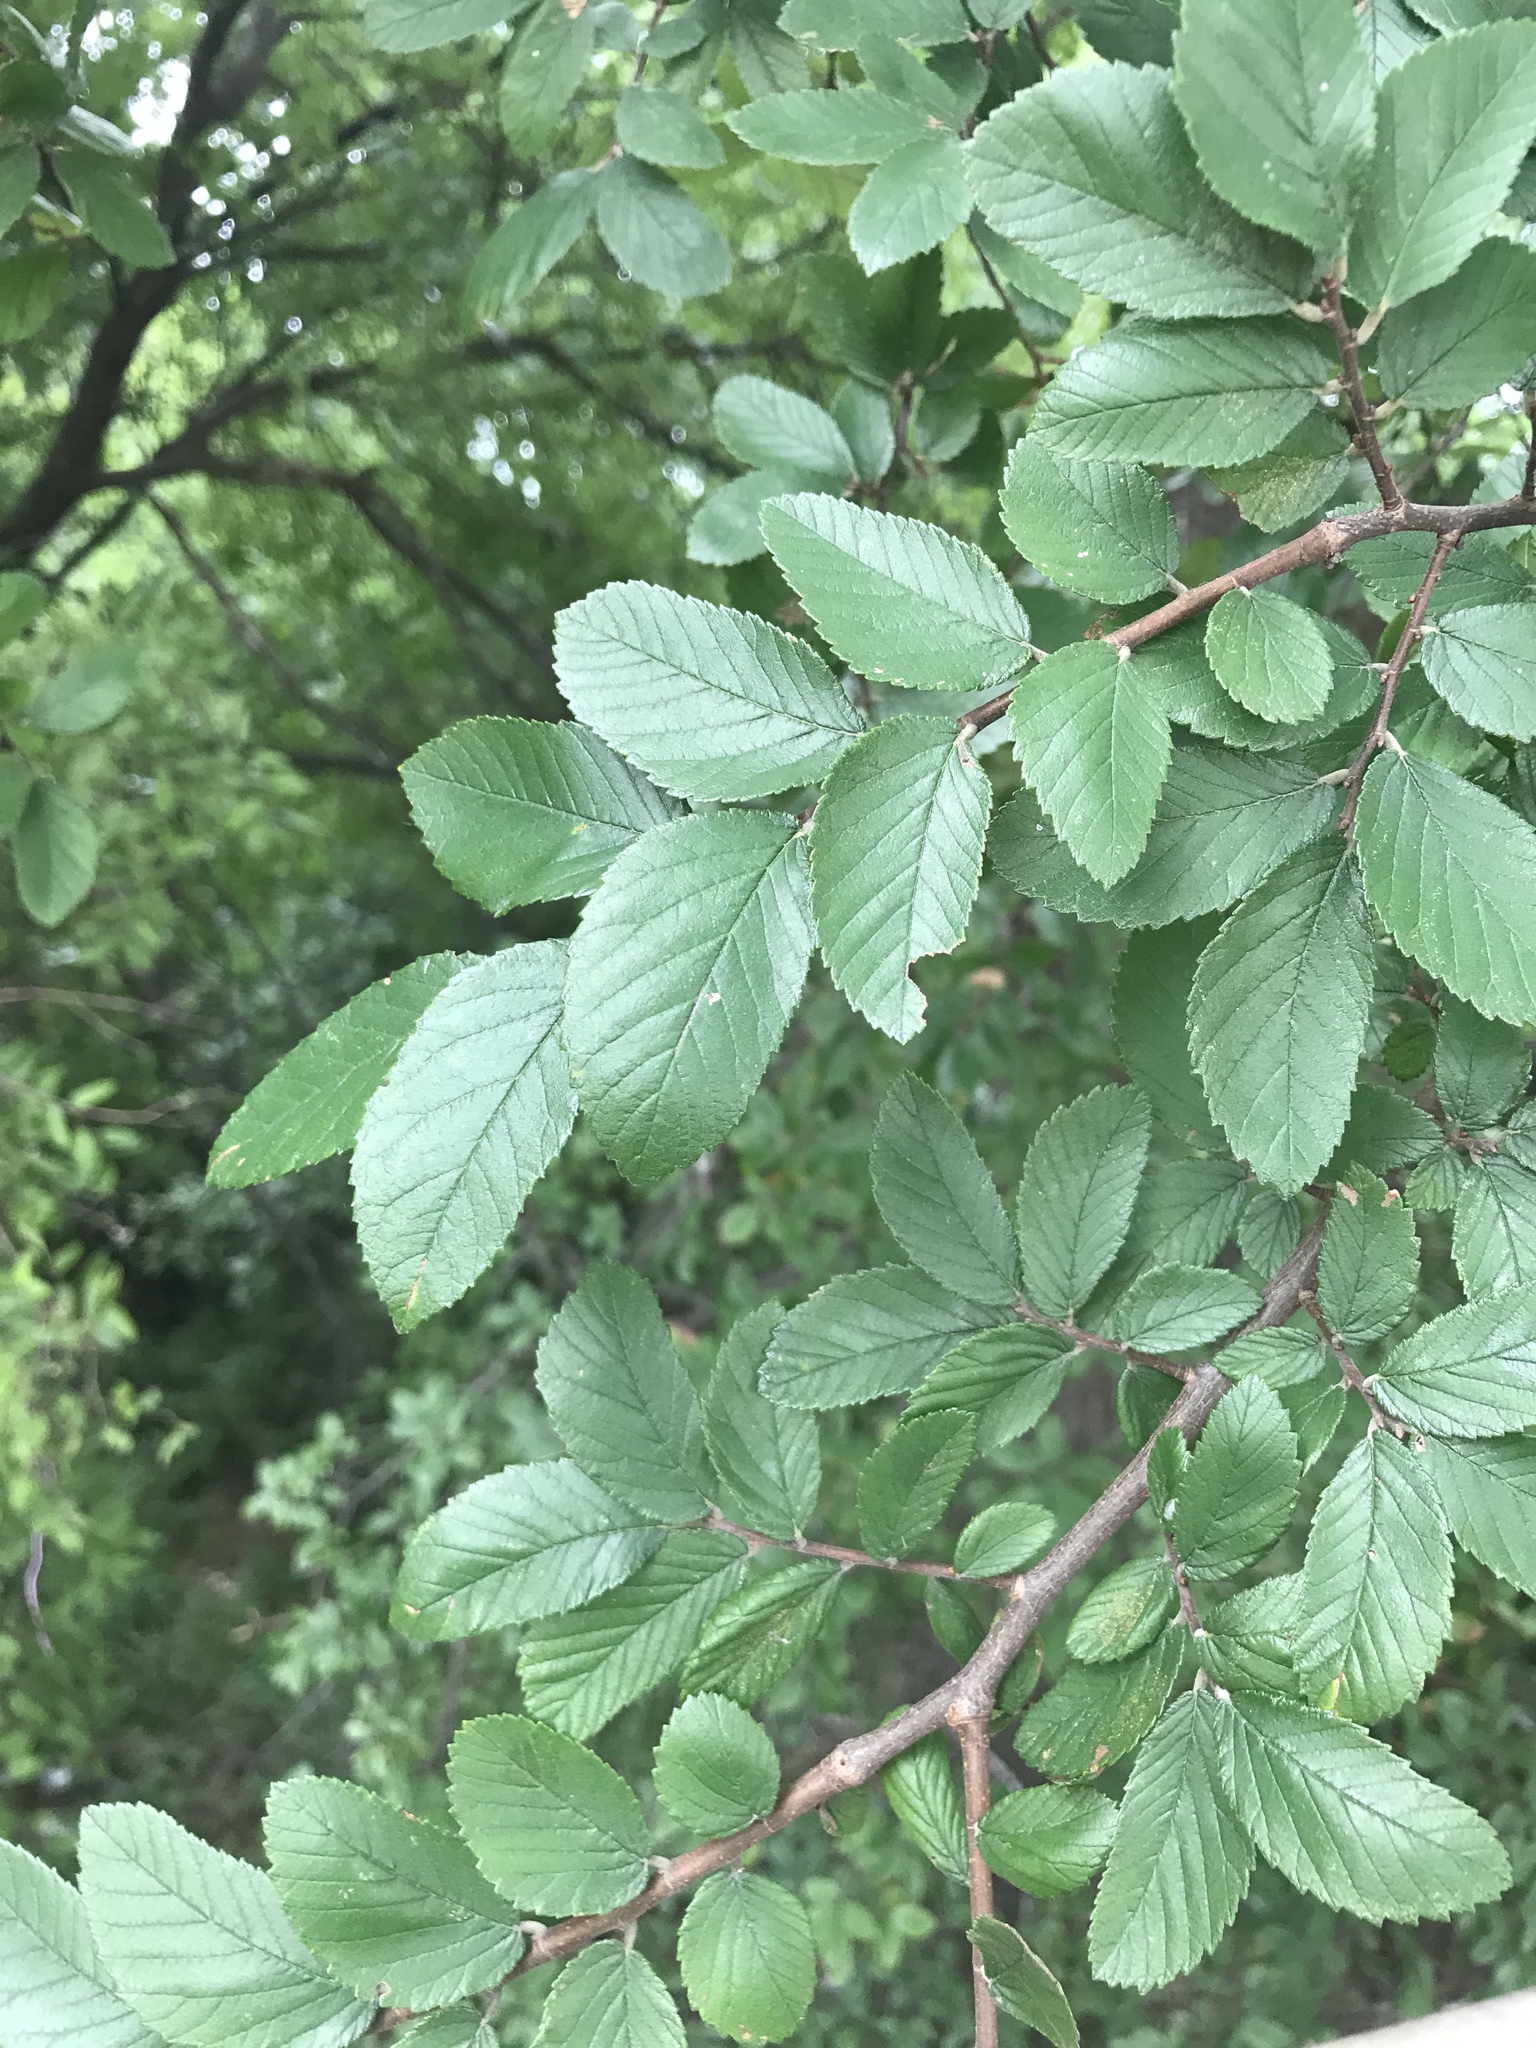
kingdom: Plantae
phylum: Tracheophyta
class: Magnoliopsida
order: Rosales
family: Ulmaceae
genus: Ulmus
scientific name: Ulmus crassifolia
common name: Basket elm
